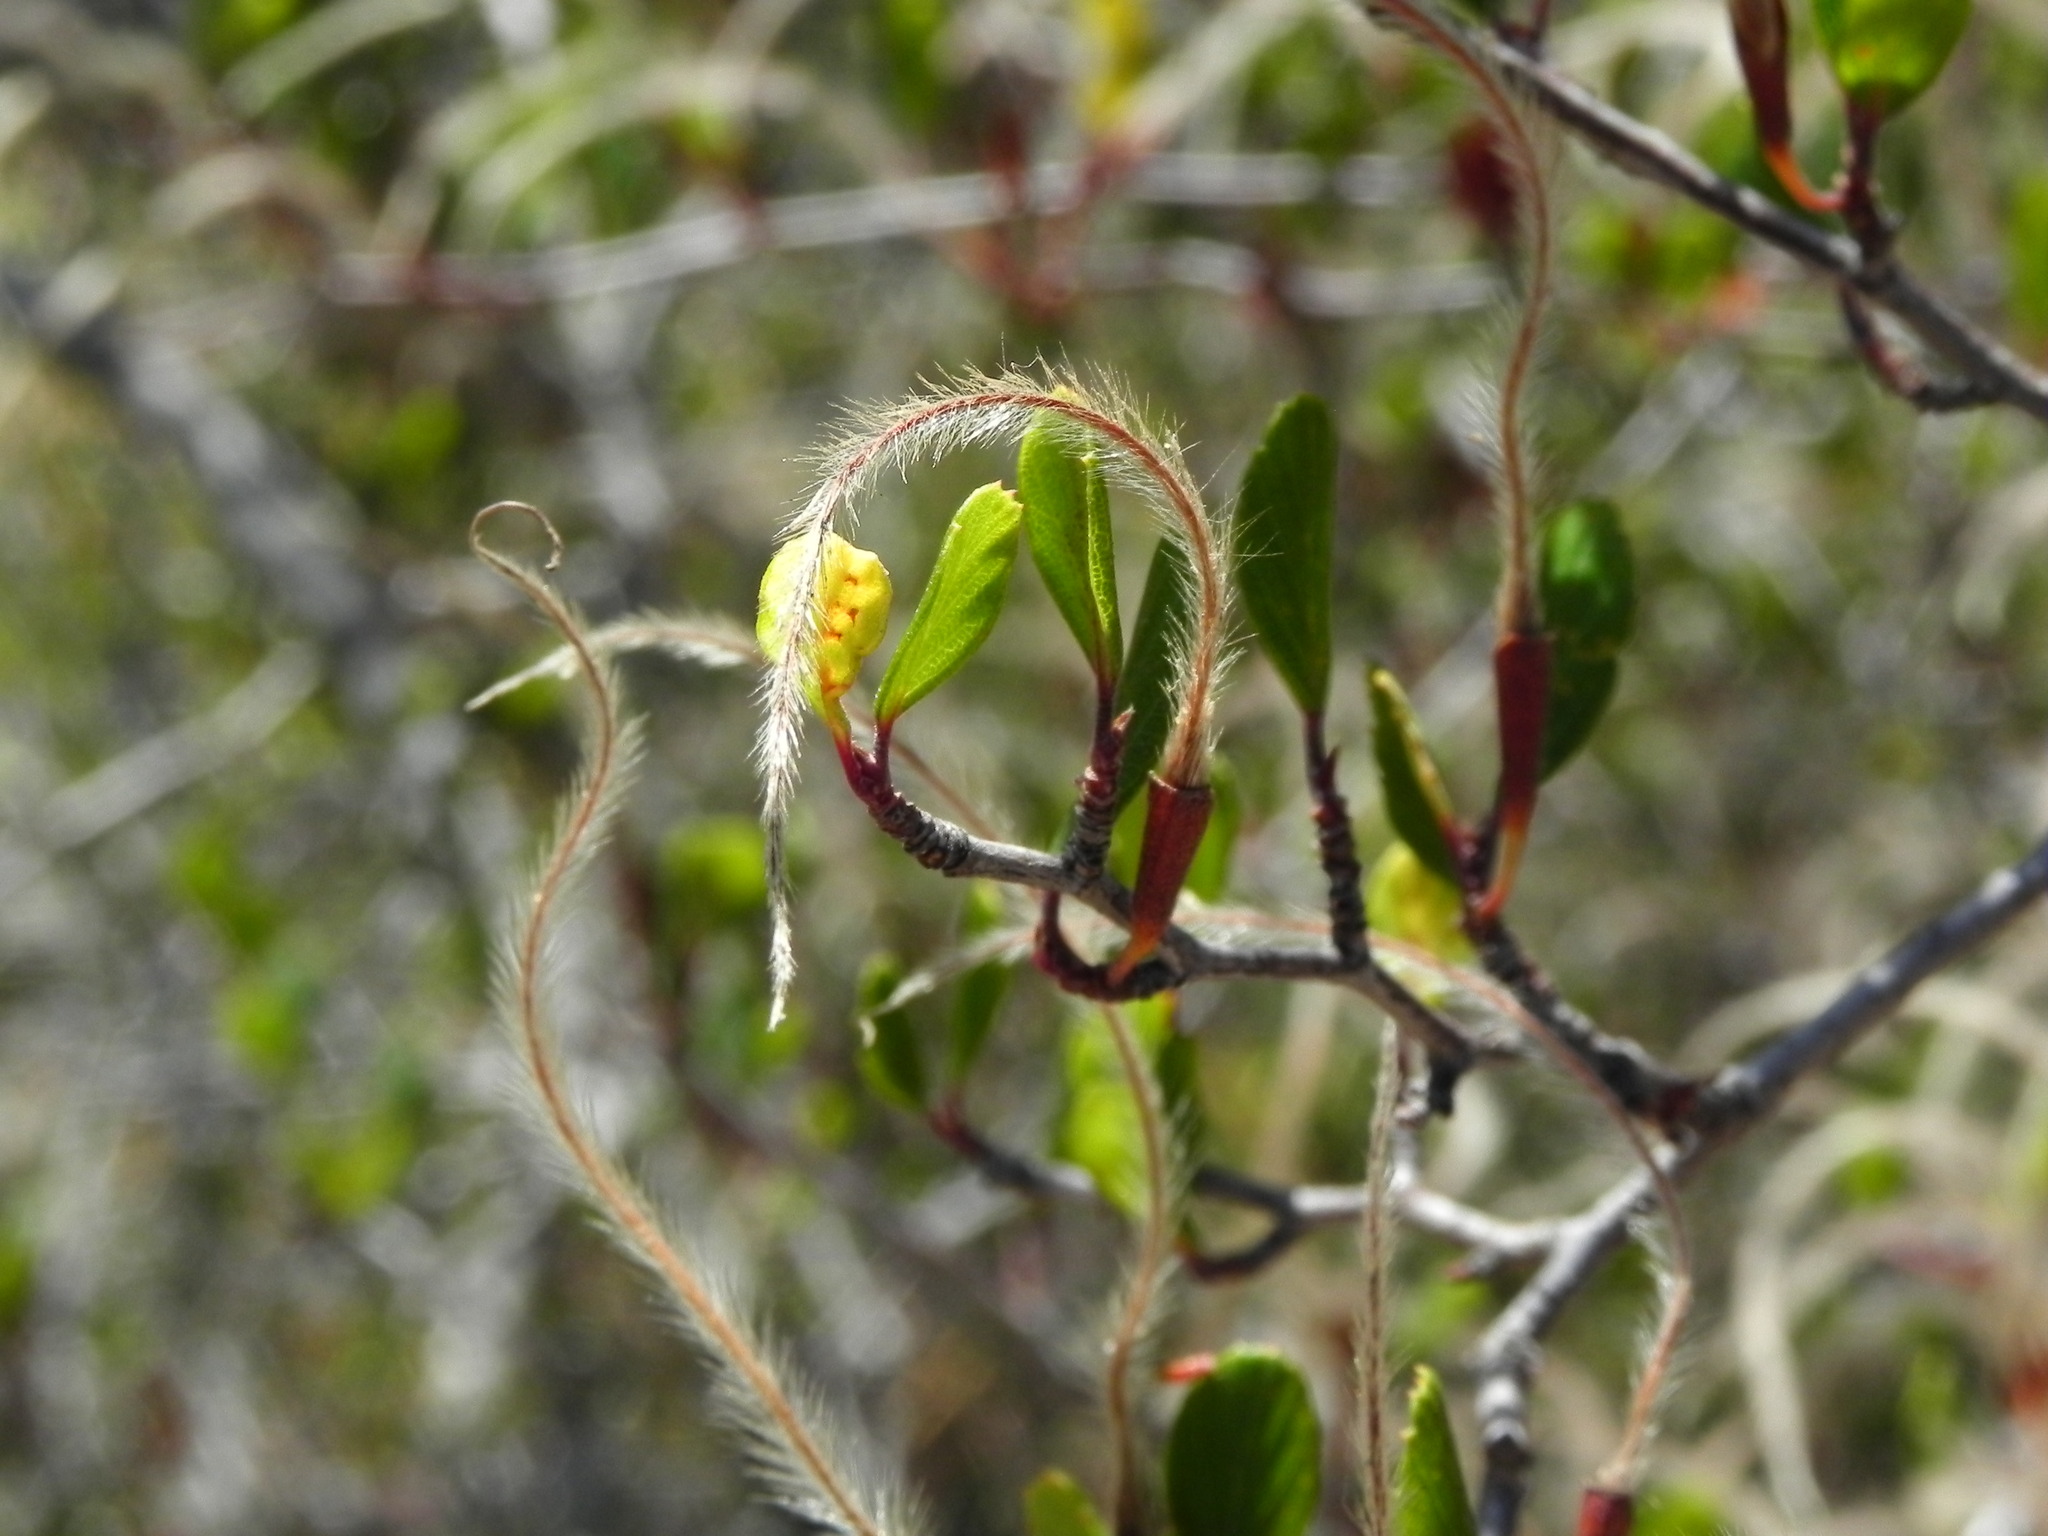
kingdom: Plantae
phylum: Tracheophyta
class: Magnoliopsida
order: Rosales
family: Rosaceae
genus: Cercocarpus
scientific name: Cercocarpus montanus
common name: Alder-leaf cercocarpus
